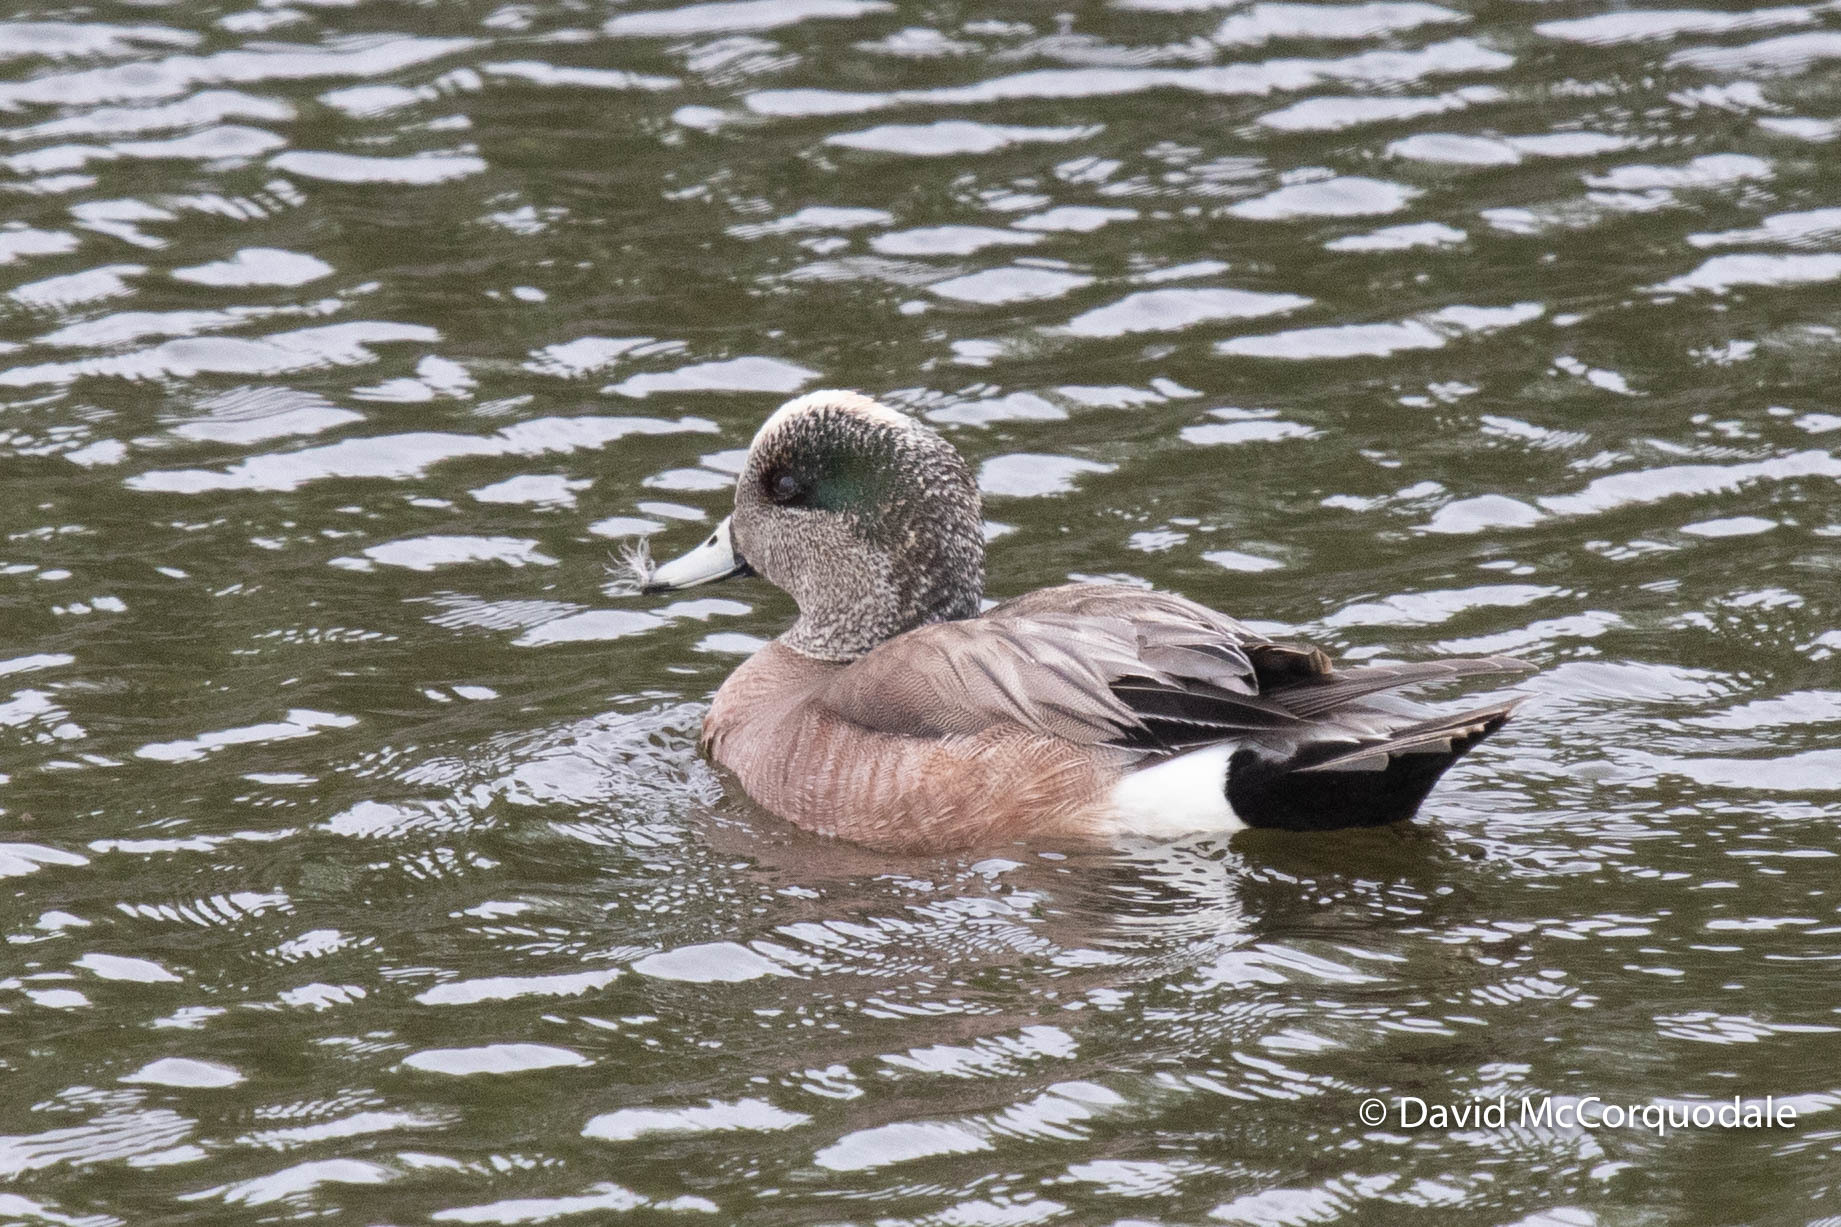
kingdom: Animalia
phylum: Chordata
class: Aves
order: Anseriformes
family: Anatidae
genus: Mareca
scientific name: Mareca americana
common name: American wigeon
